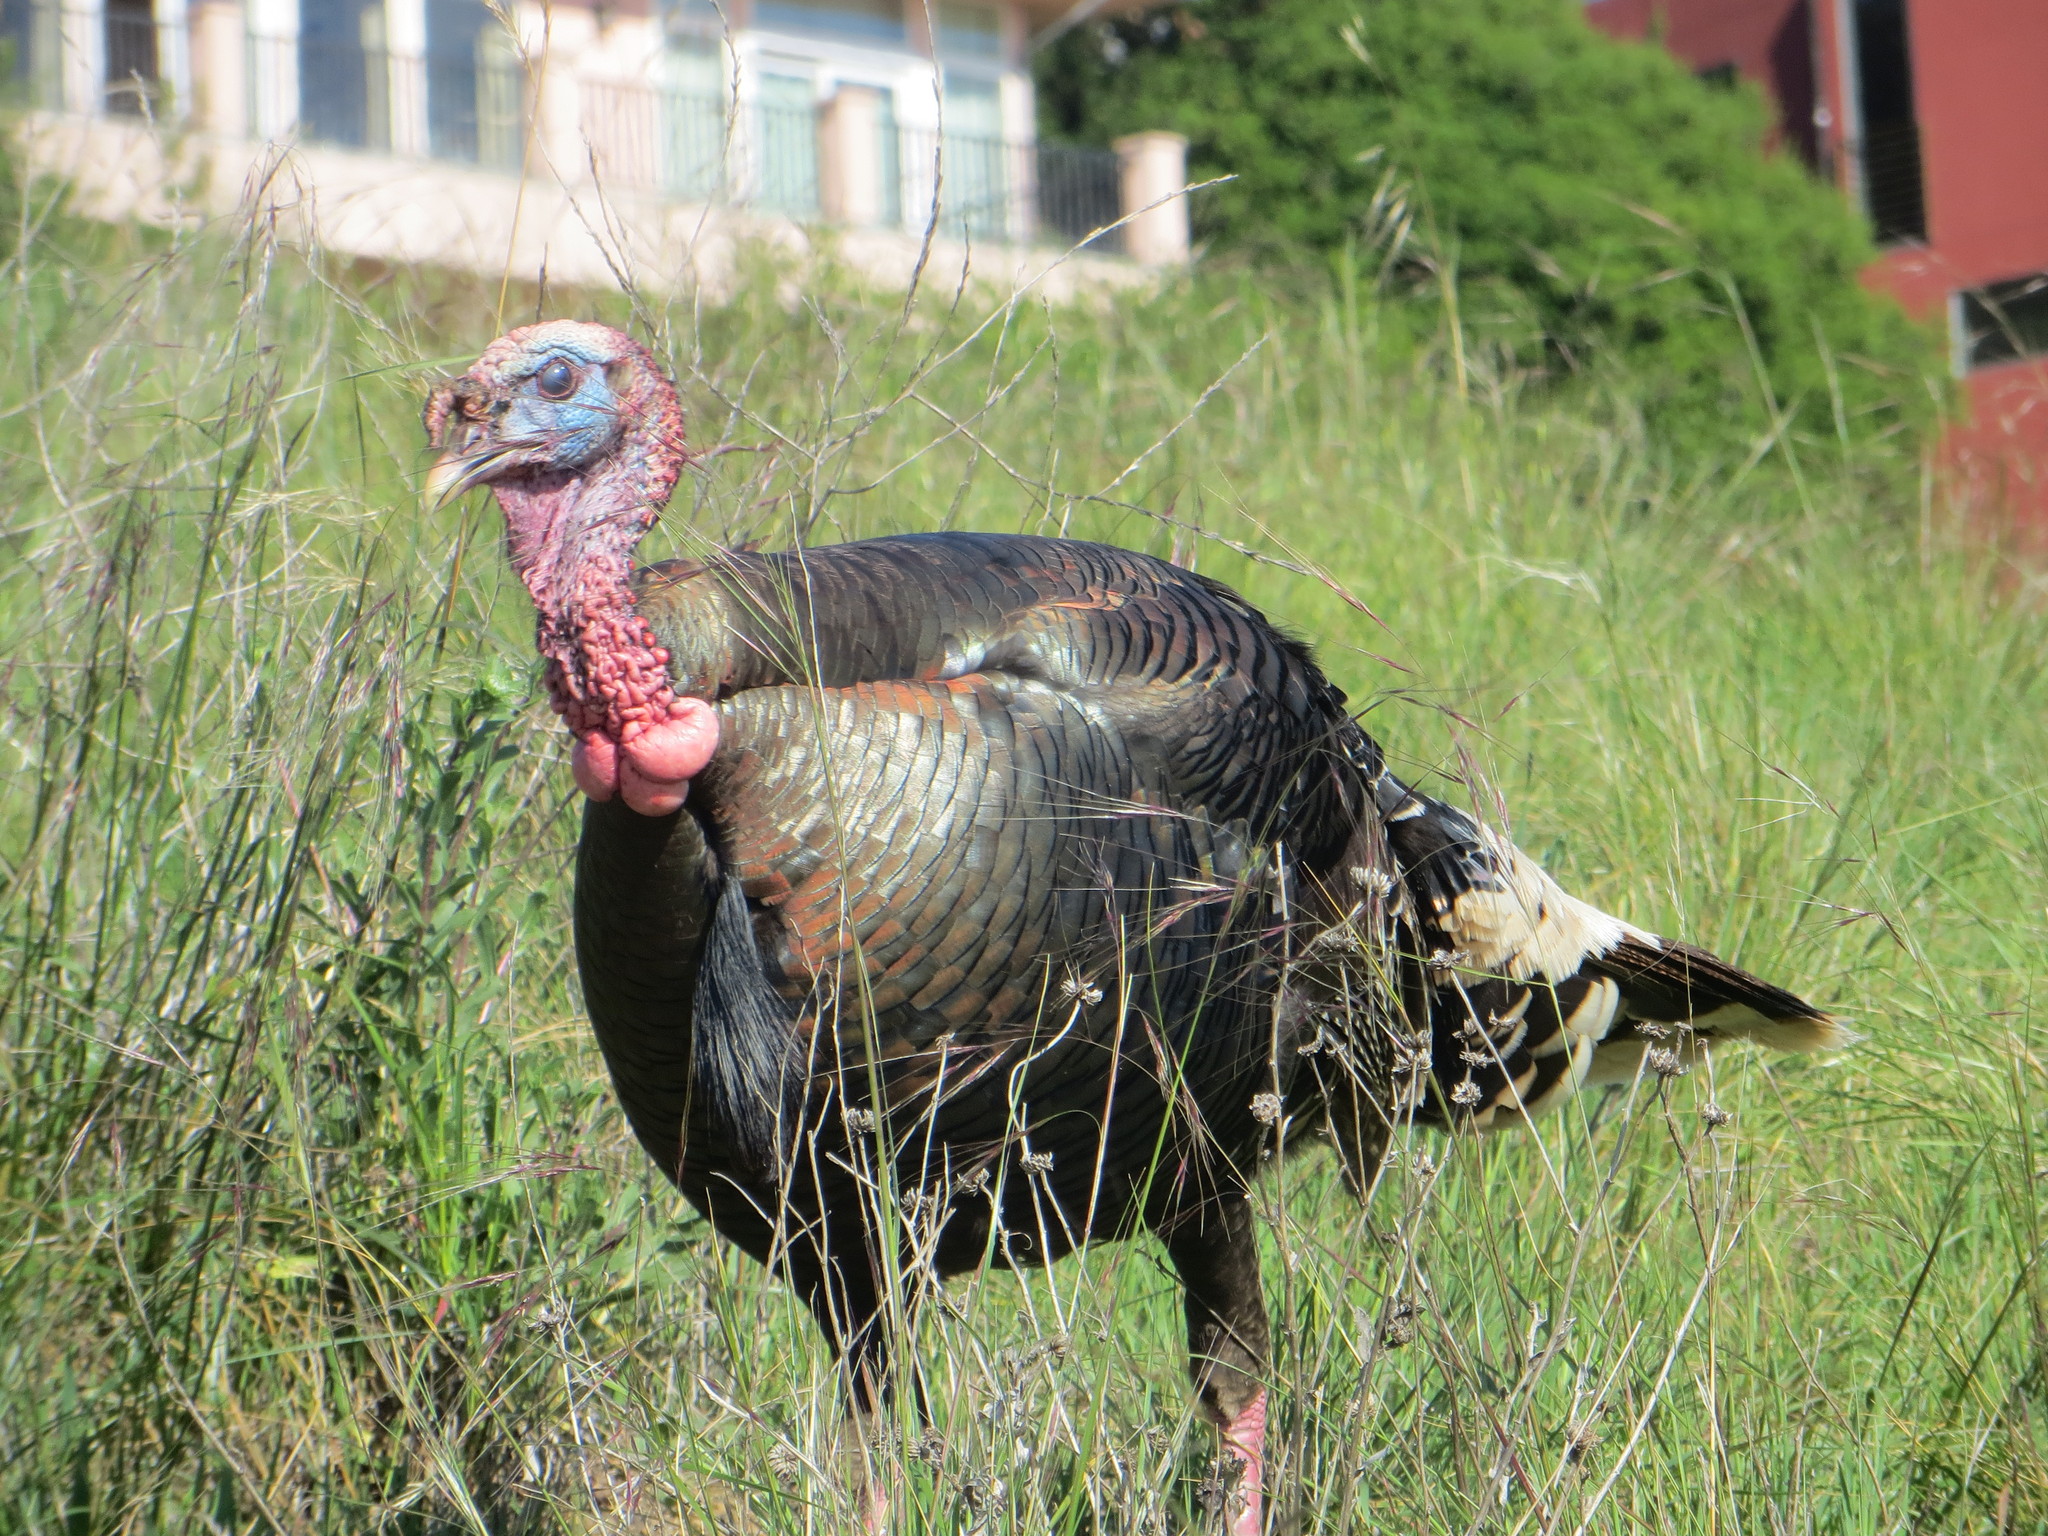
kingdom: Animalia
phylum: Chordata
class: Aves
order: Galliformes
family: Phasianidae
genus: Meleagris
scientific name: Meleagris gallopavo
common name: Wild turkey
